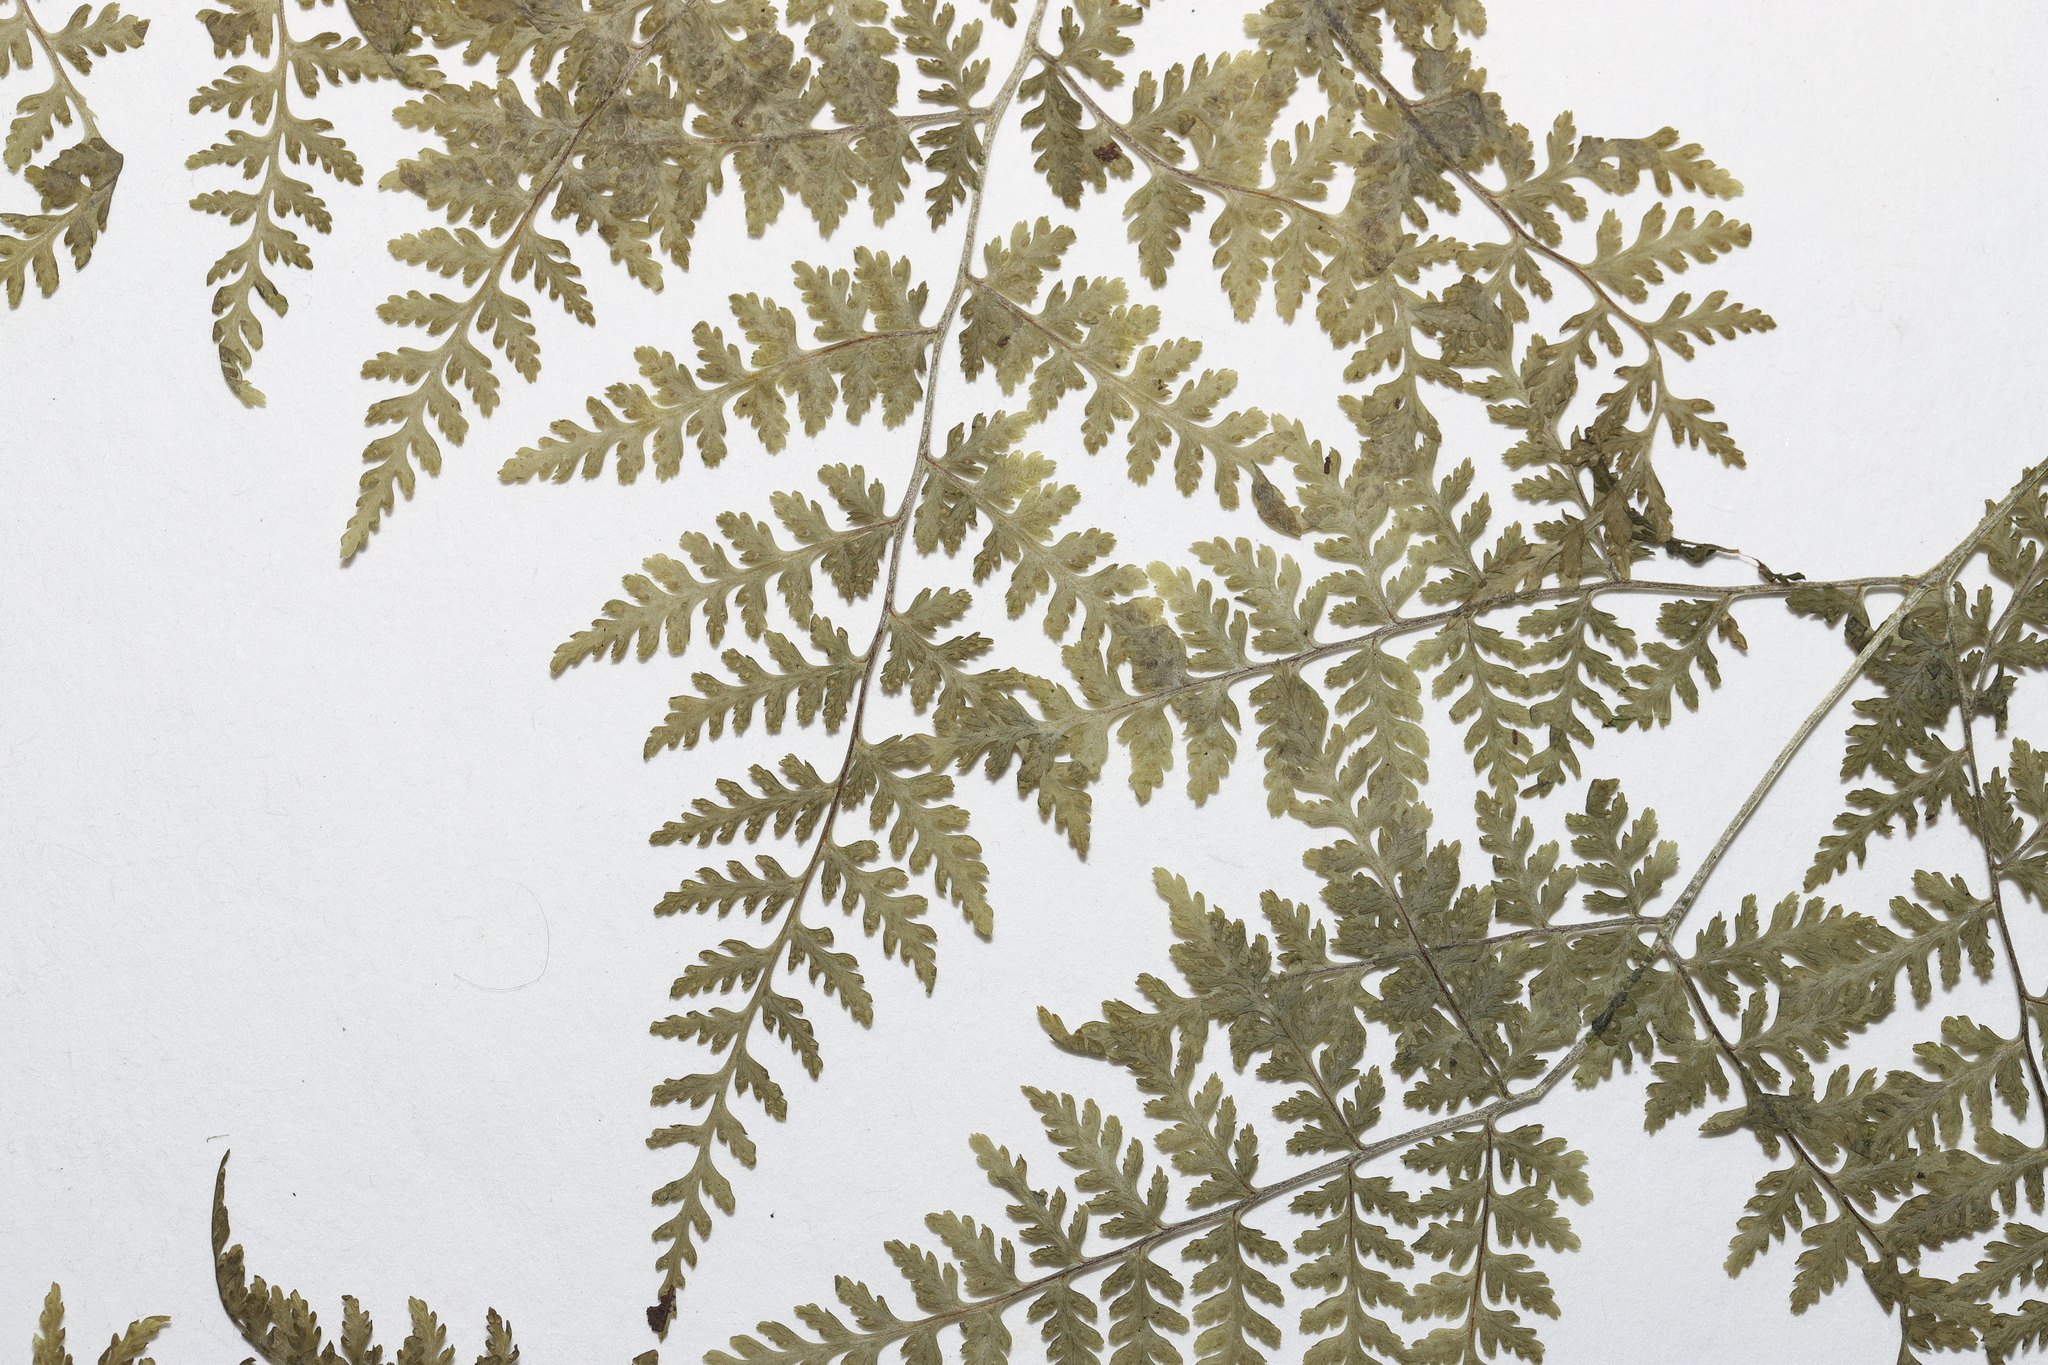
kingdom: Plantae
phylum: Tracheophyta
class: Polypodiopsida
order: Polypodiales
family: Cystopteridaceae
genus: Cystopteris
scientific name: Cystopteris montana
